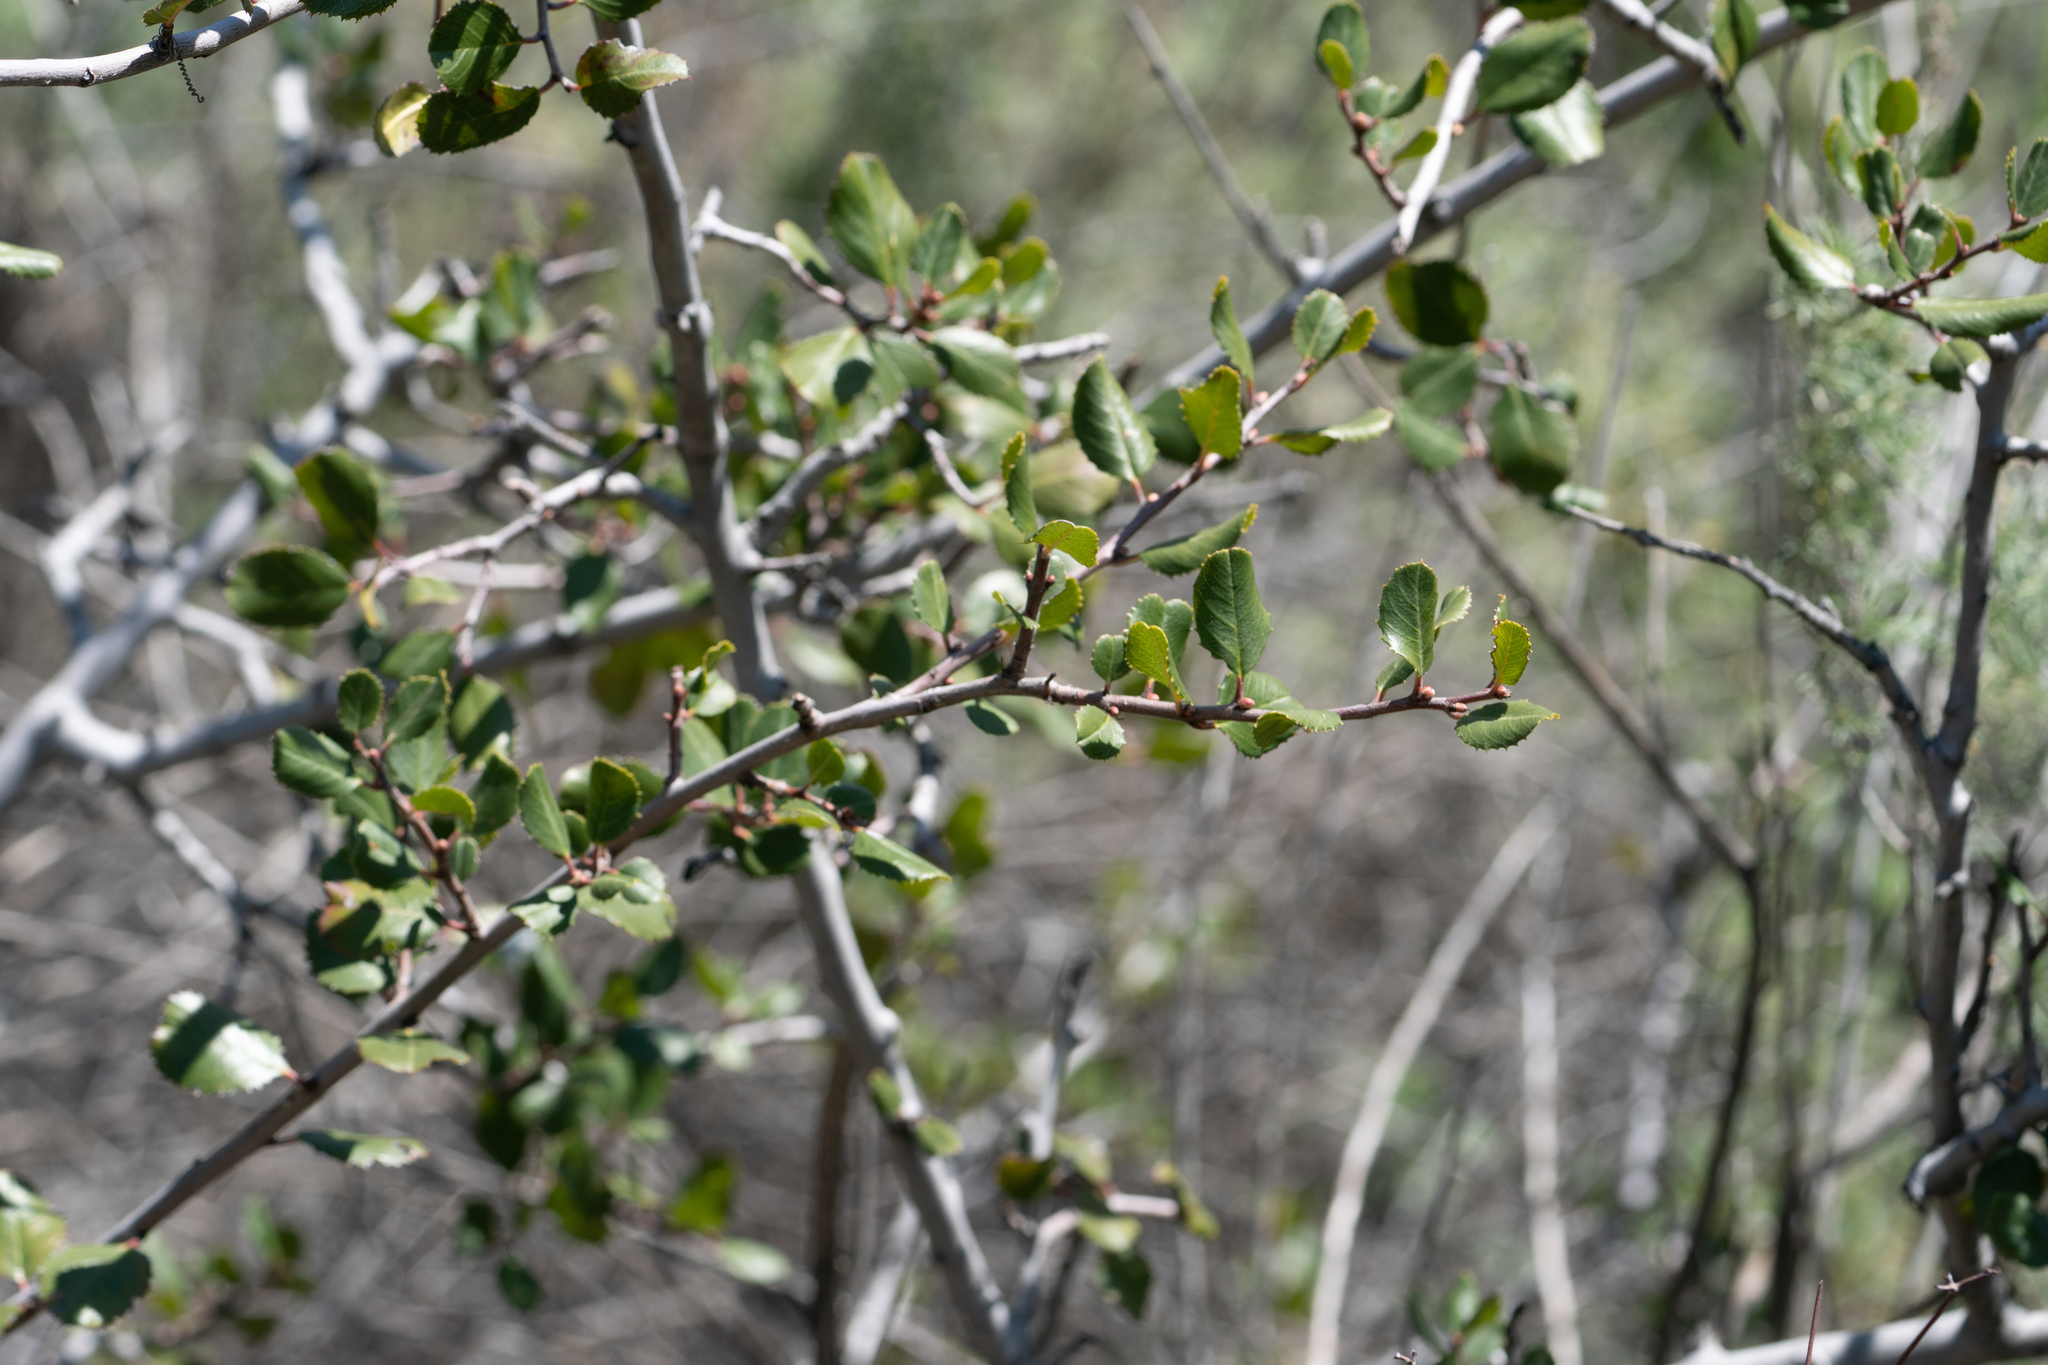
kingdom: Plantae
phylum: Tracheophyta
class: Magnoliopsida
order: Rosales
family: Rhamnaceae
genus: Endotropis
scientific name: Endotropis crocea
